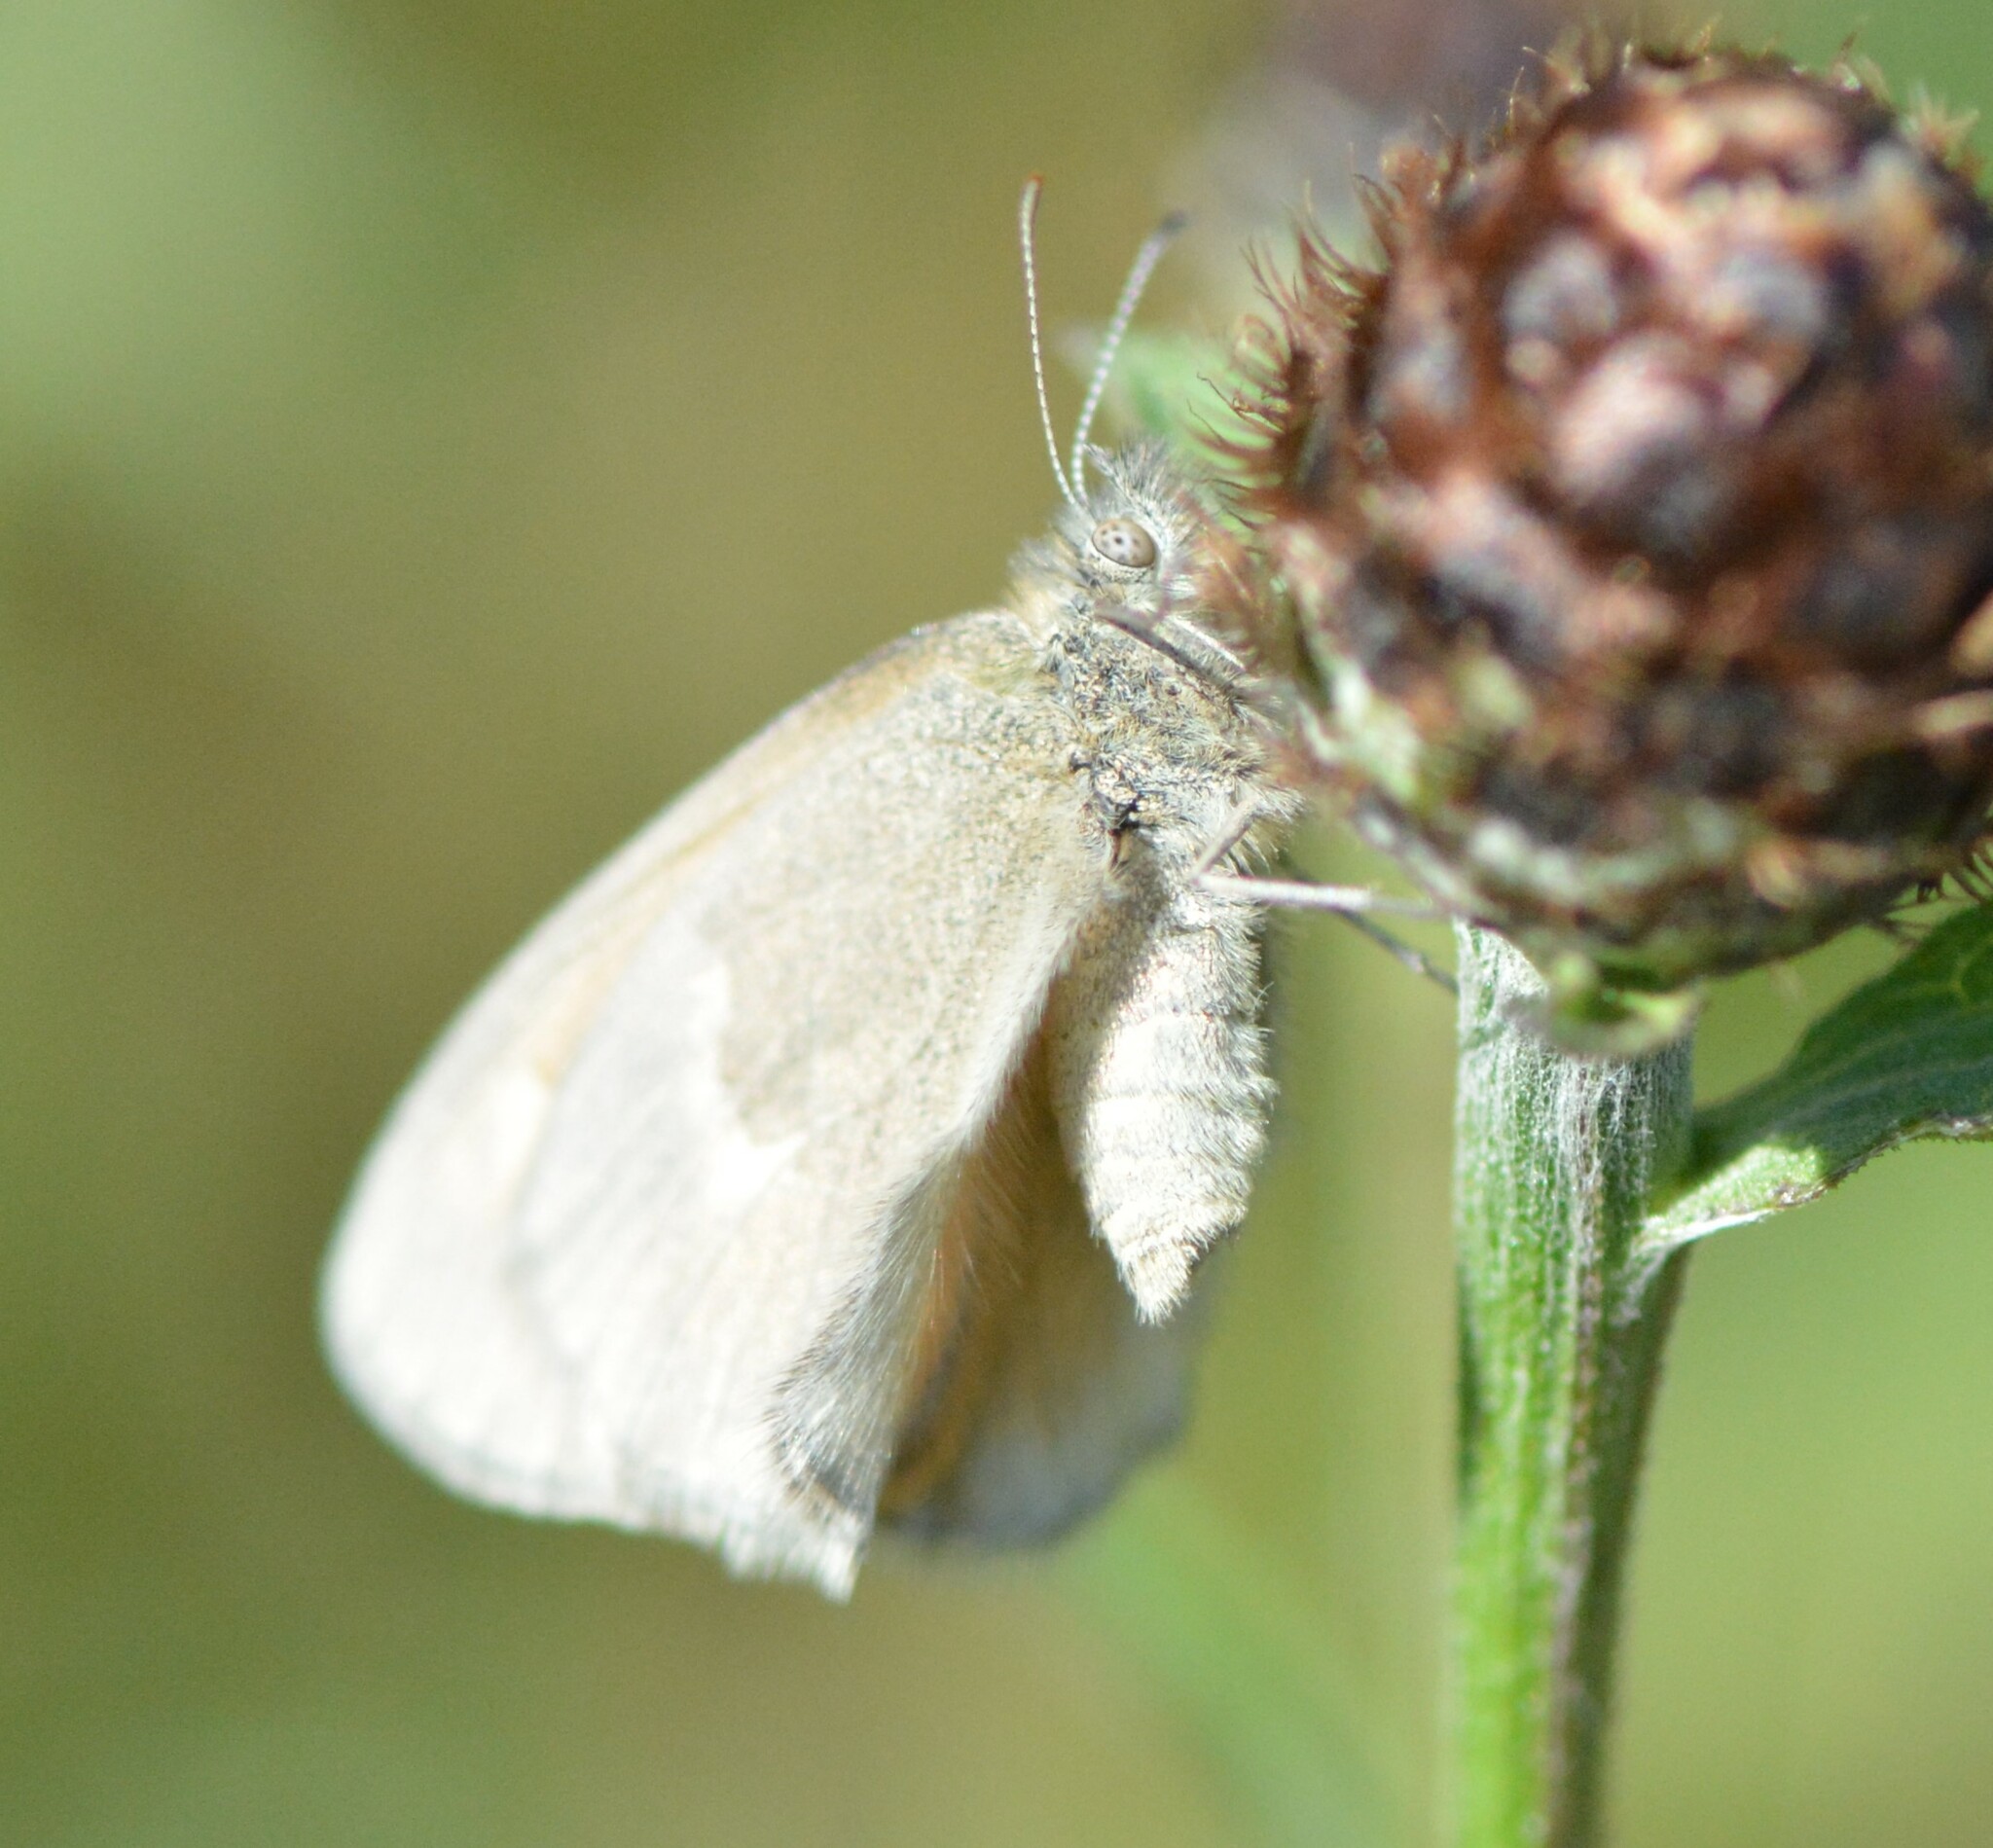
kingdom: Animalia
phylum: Arthropoda
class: Insecta
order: Lepidoptera
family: Nymphalidae
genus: Coenonympha
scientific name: Coenonympha california
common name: Common ringlet
